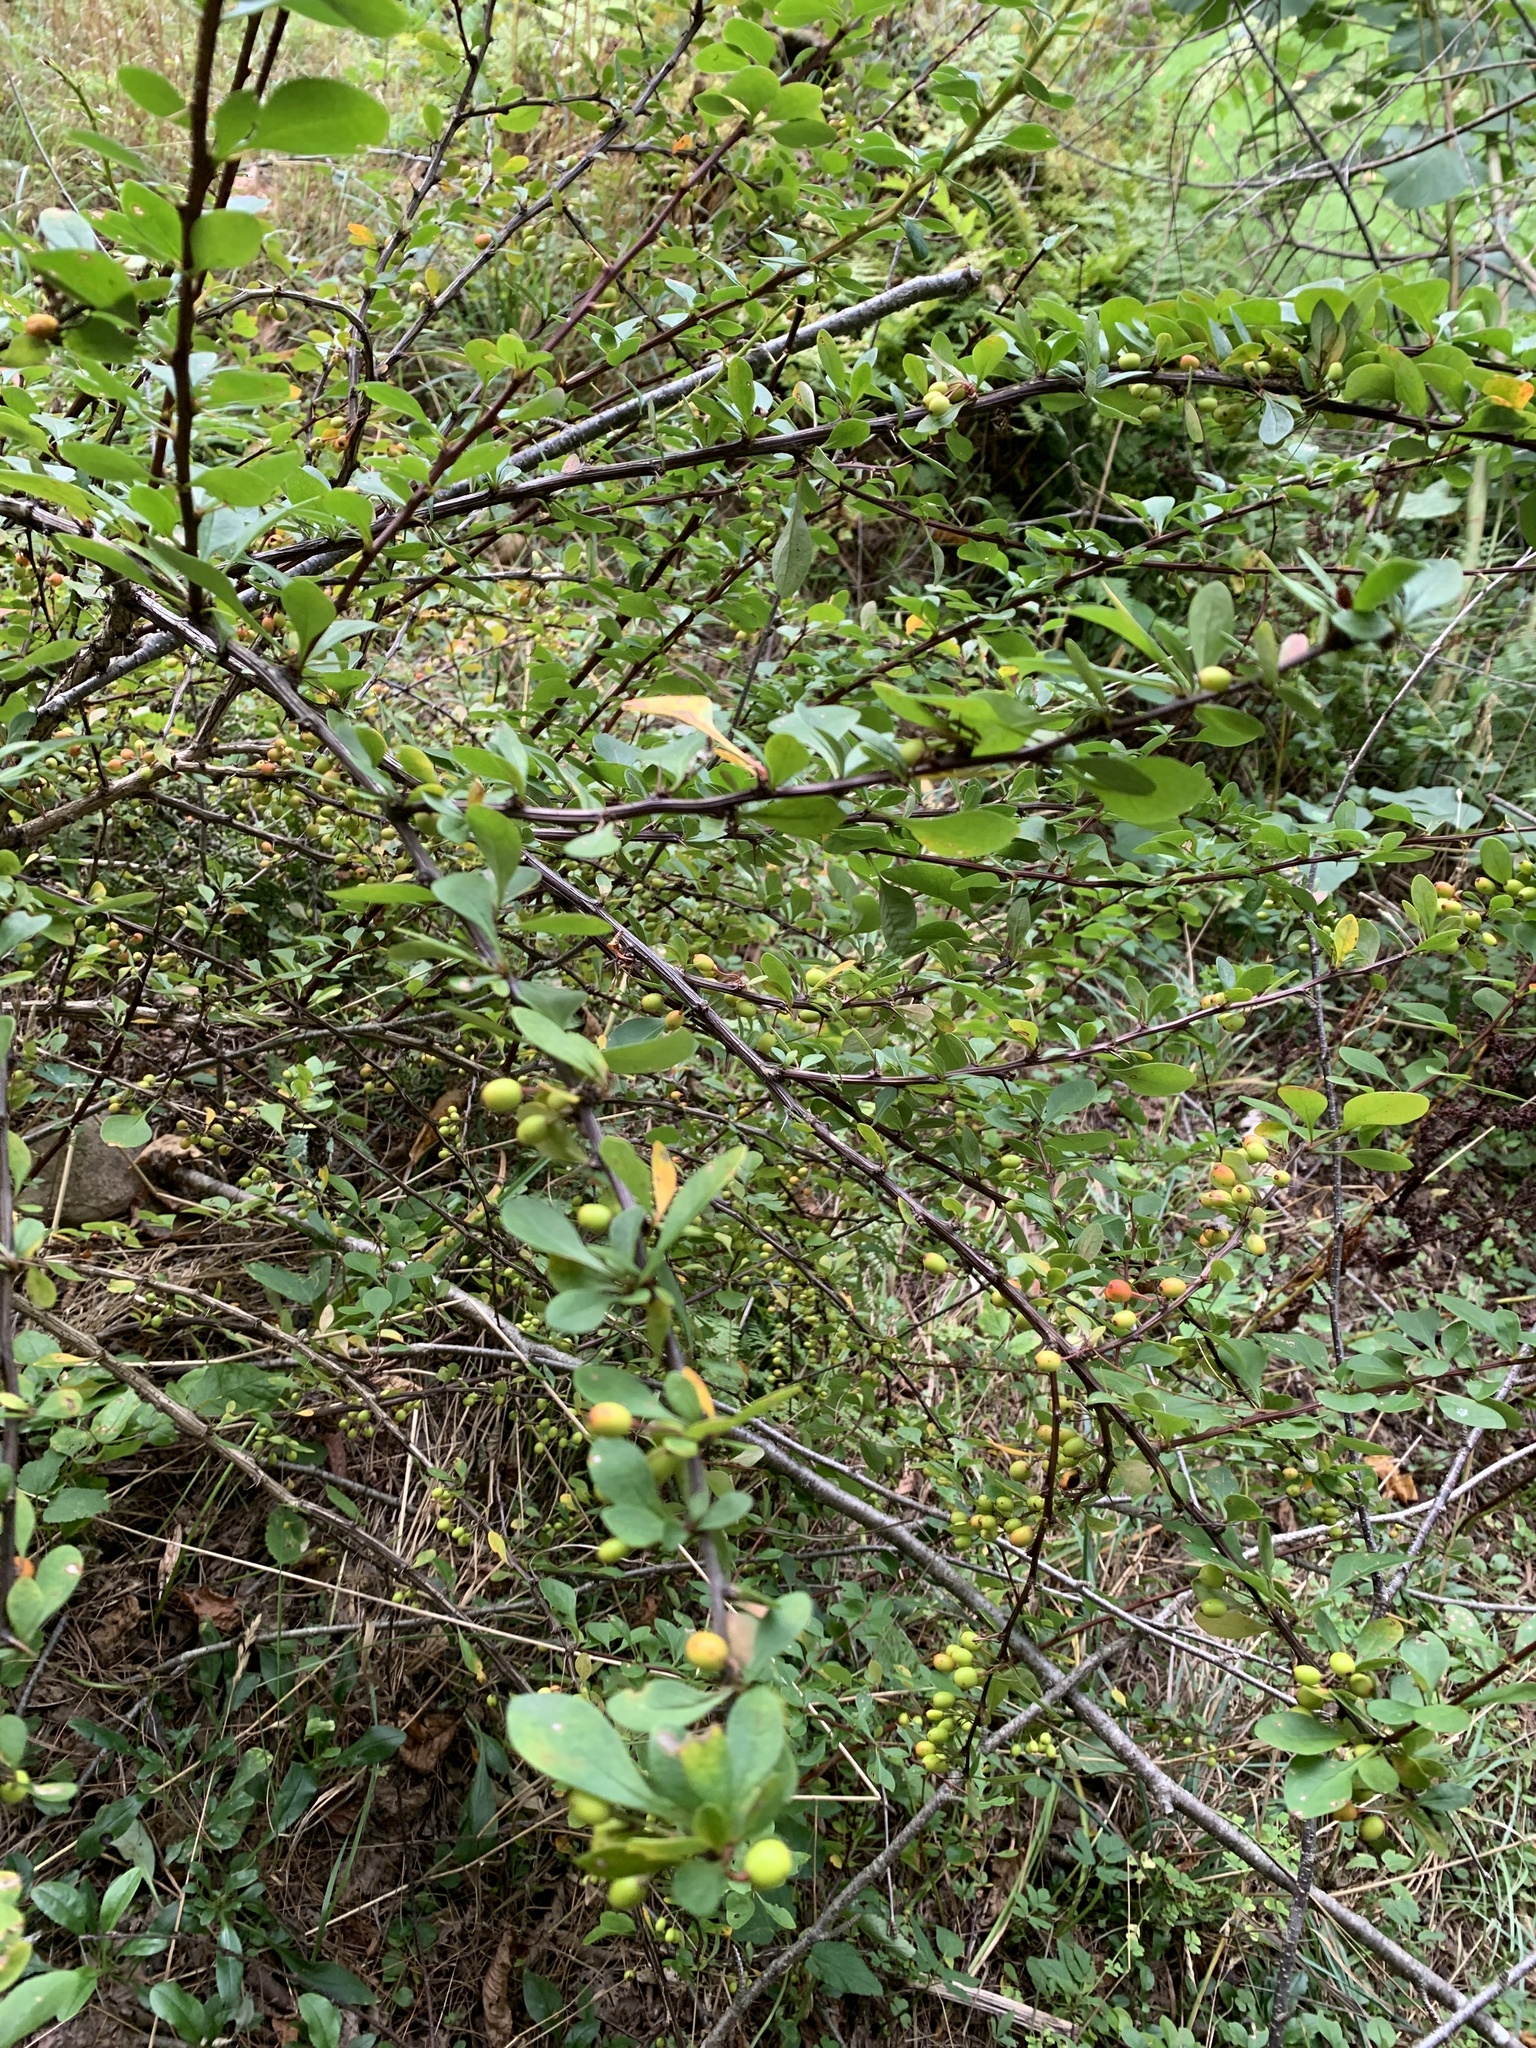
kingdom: Plantae
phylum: Tracheophyta
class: Magnoliopsida
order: Ranunculales
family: Berberidaceae
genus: Berberis
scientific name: Berberis thunbergii
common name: Japanese barberry
